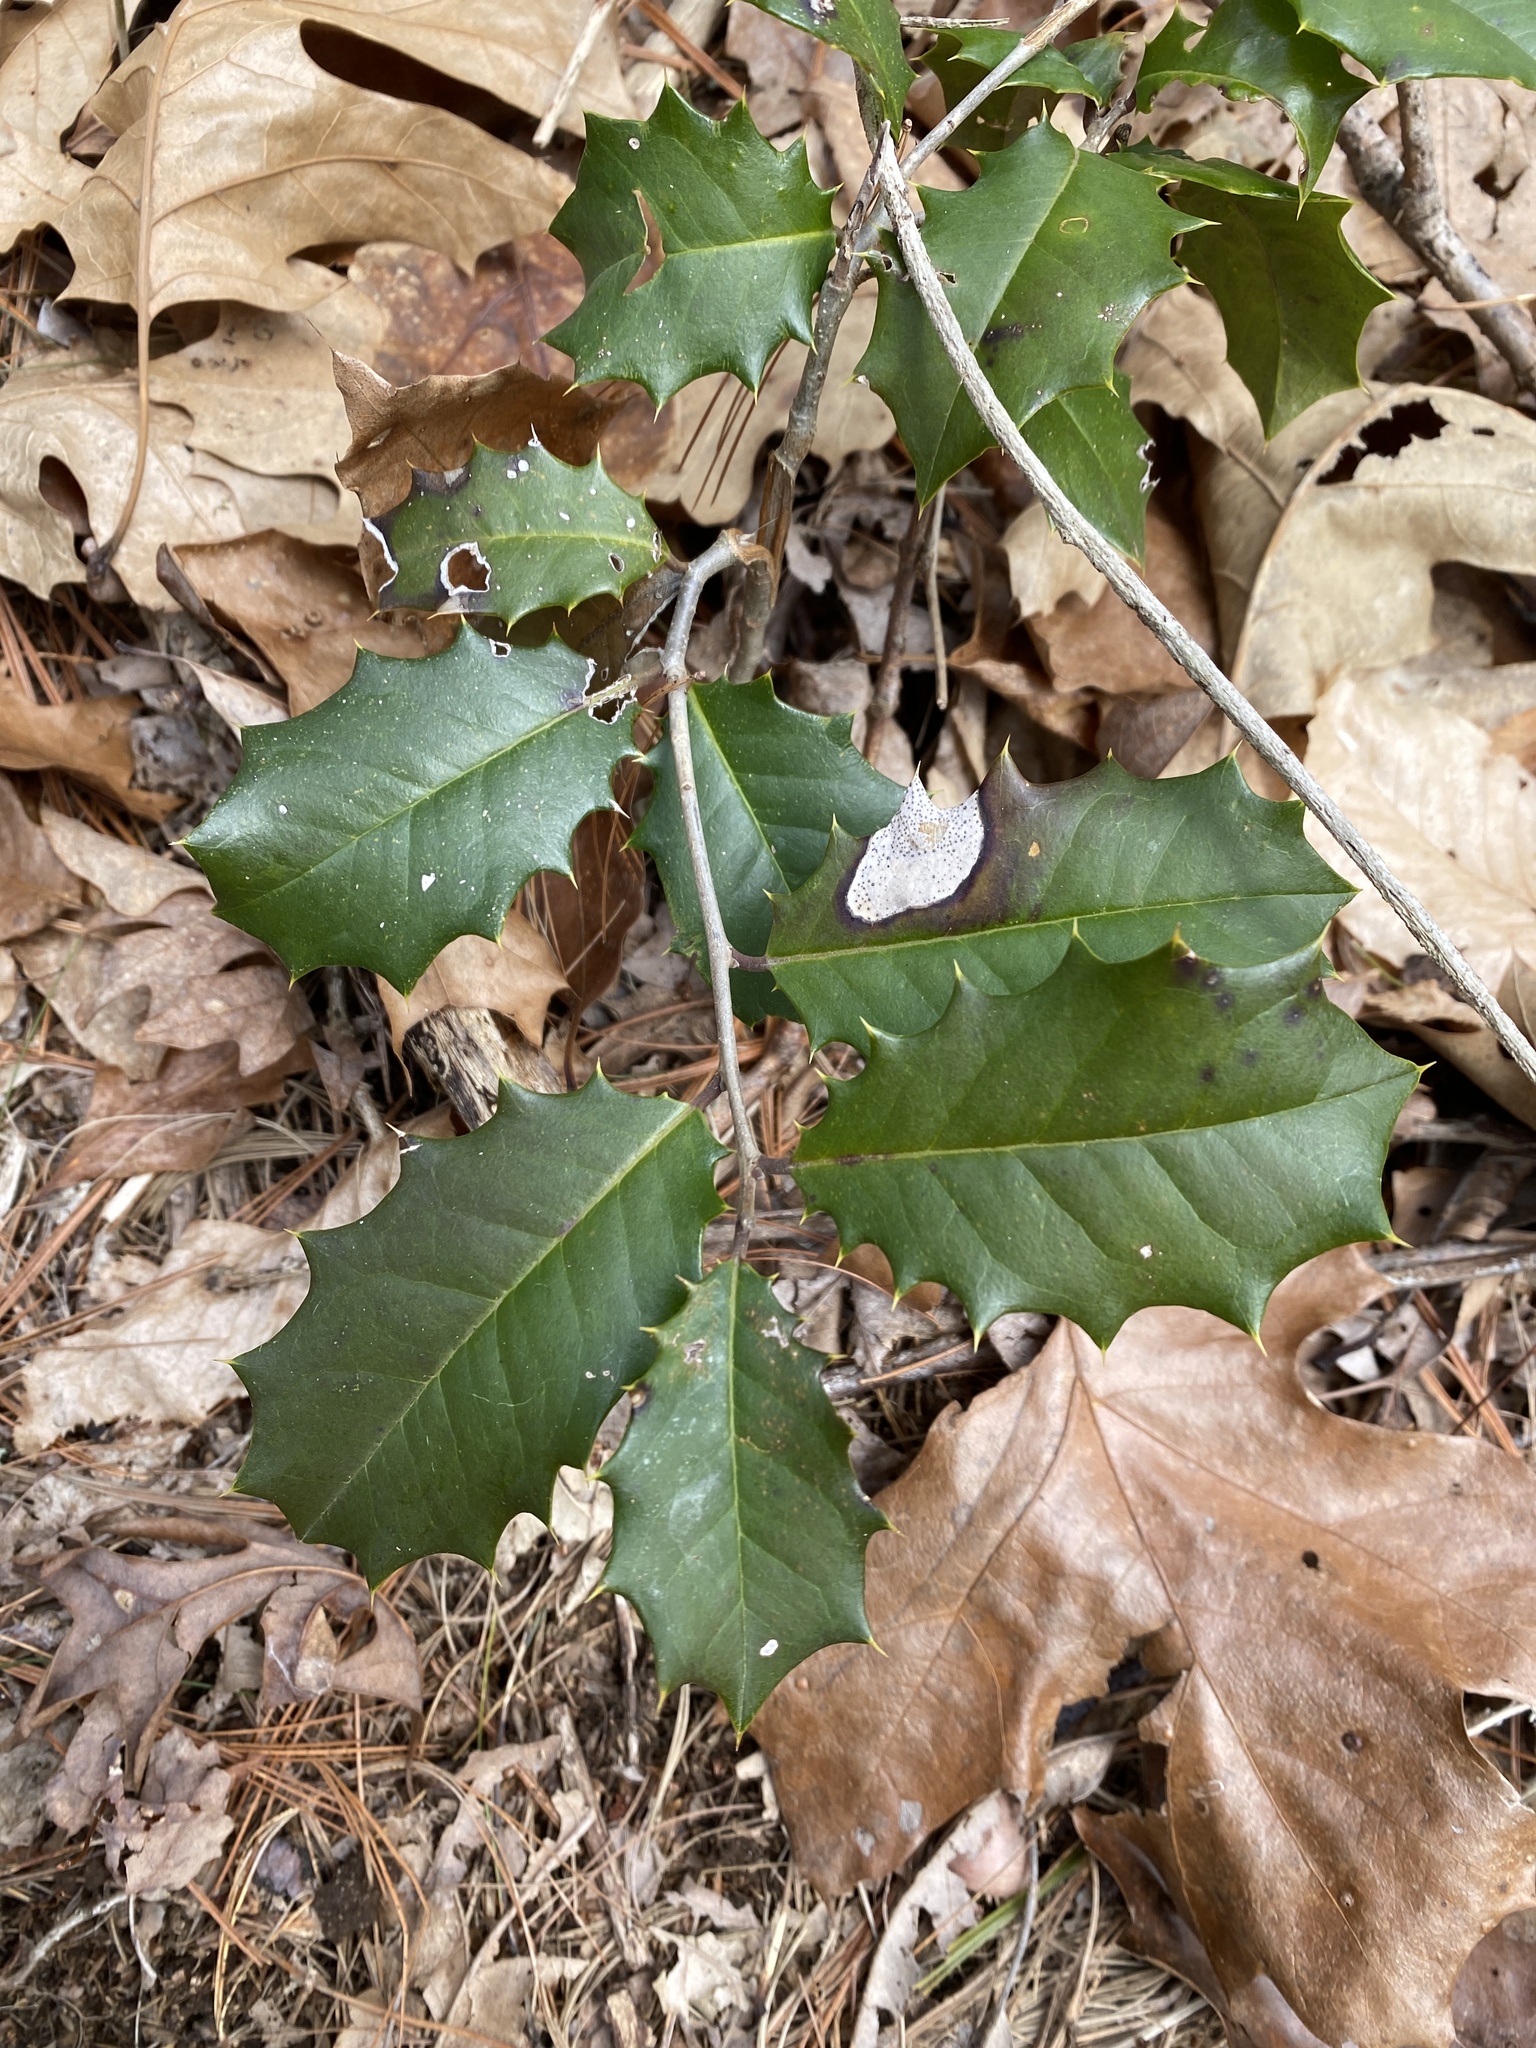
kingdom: Plantae
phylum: Tracheophyta
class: Magnoliopsida
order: Aquifoliales
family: Aquifoliaceae
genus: Ilex
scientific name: Ilex opaca
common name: American holly
